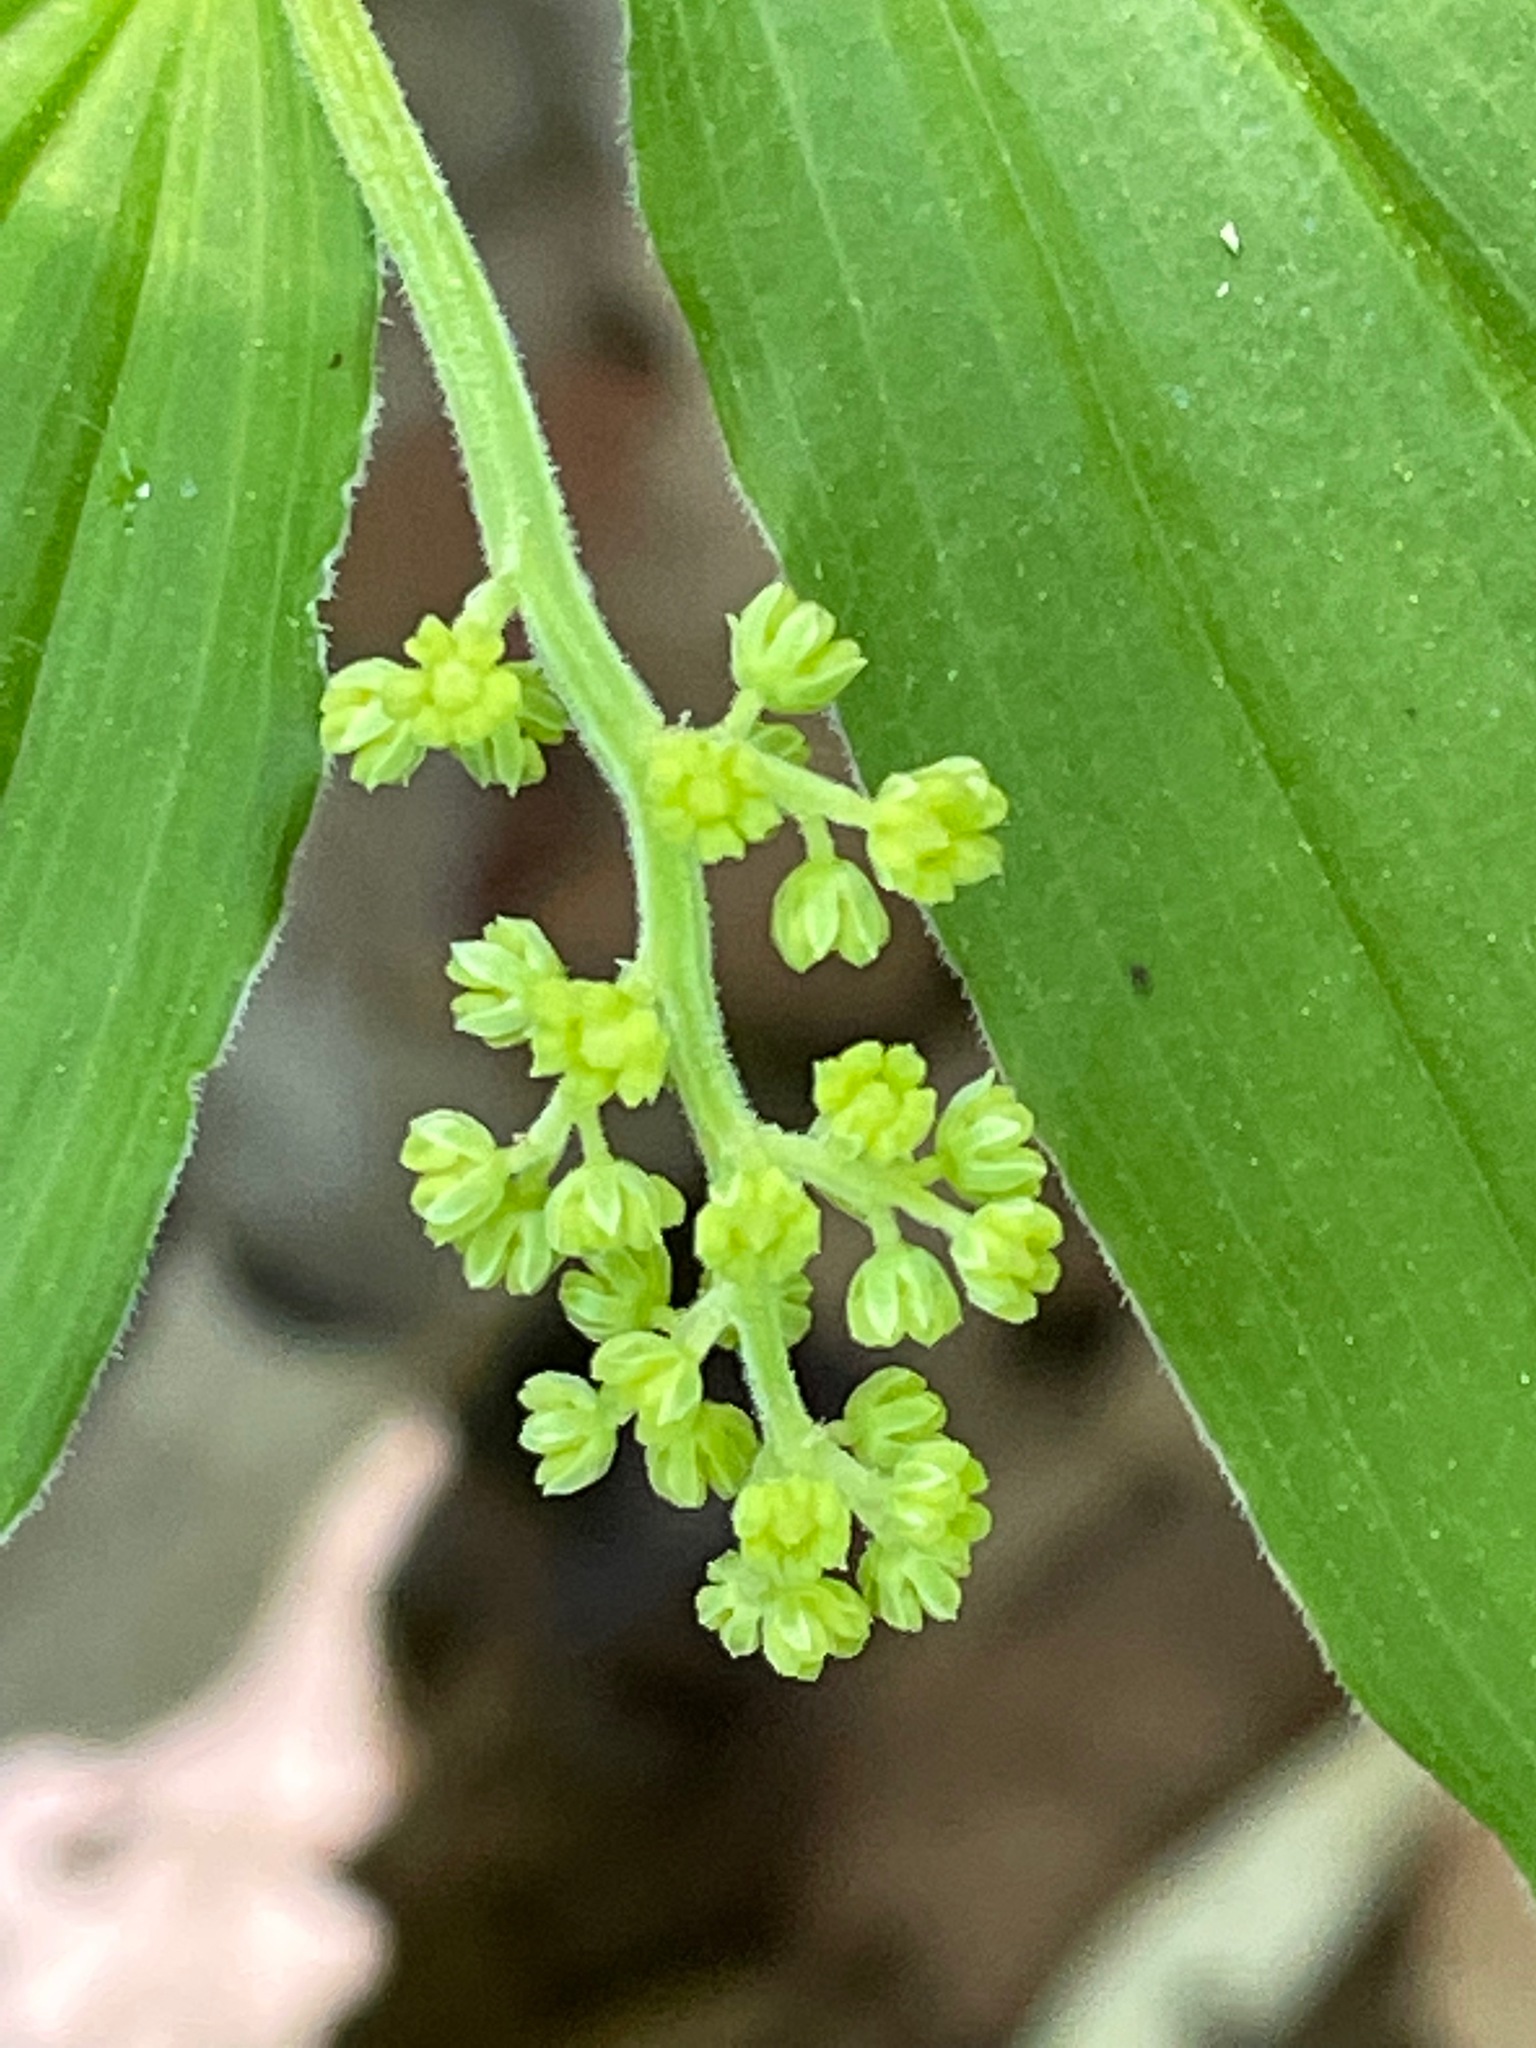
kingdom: Plantae
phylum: Tracheophyta
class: Liliopsida
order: Asparagales
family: Asparagaceae
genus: Maianthemum
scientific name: Maianthemum racemosum
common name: False spikenard
